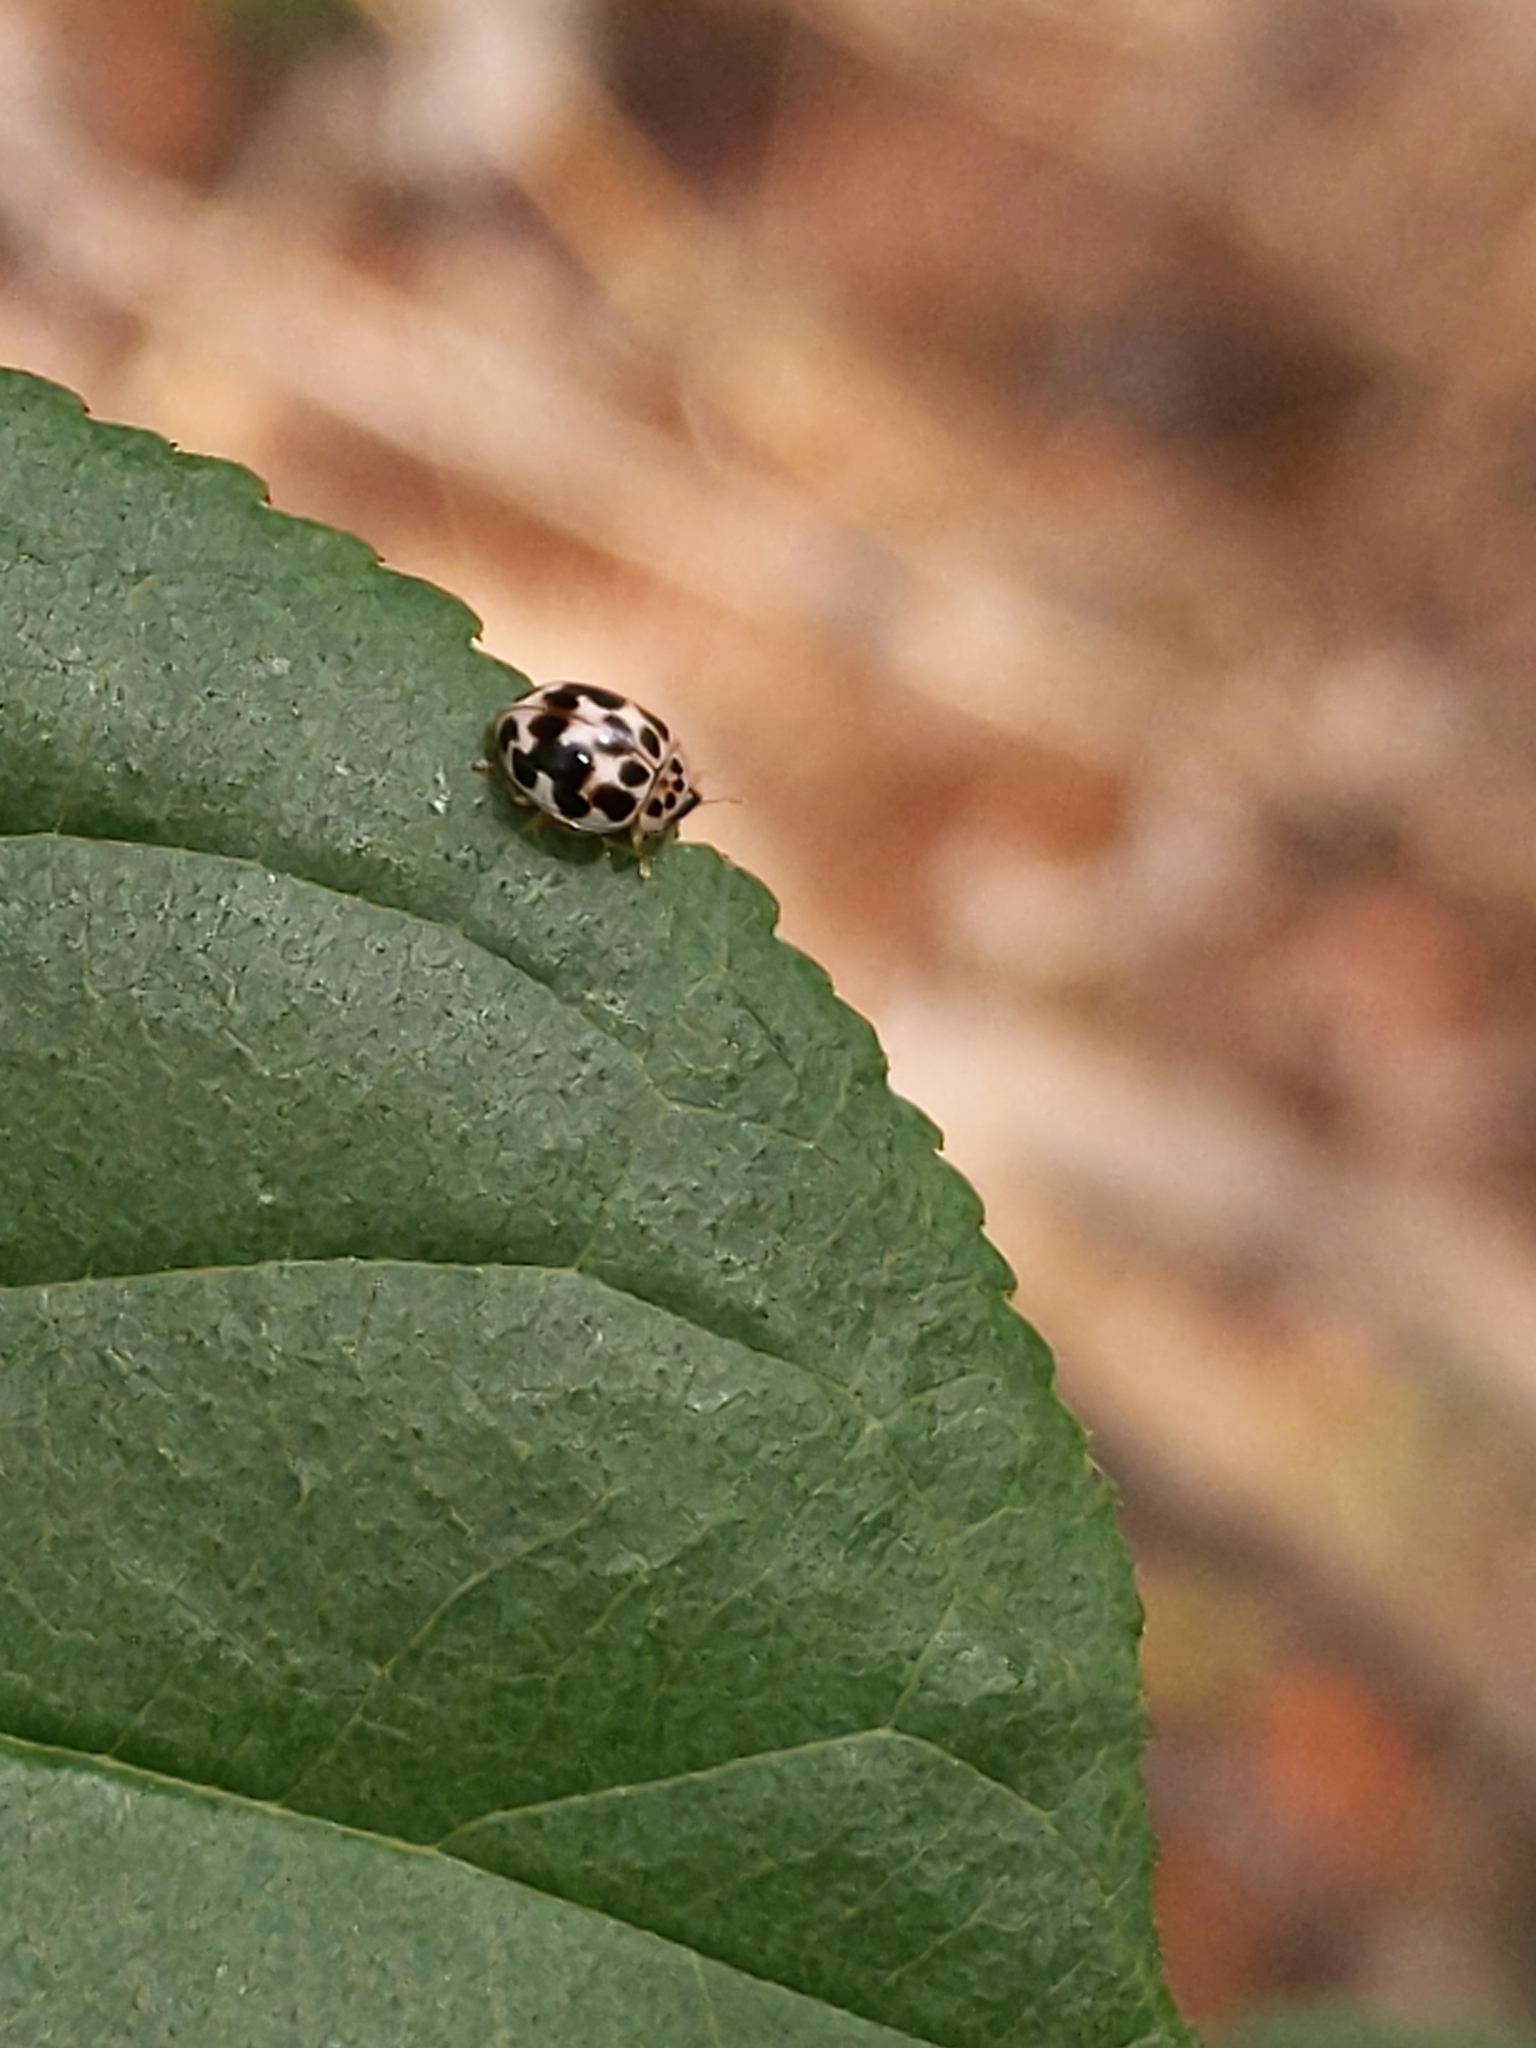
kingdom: Animalia
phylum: Arthropoda
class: Insecta
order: Coleoptera
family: Coccinellidae
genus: Psyllobora
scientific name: Psyllobora vigintimaculata
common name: Ladybird beetle
